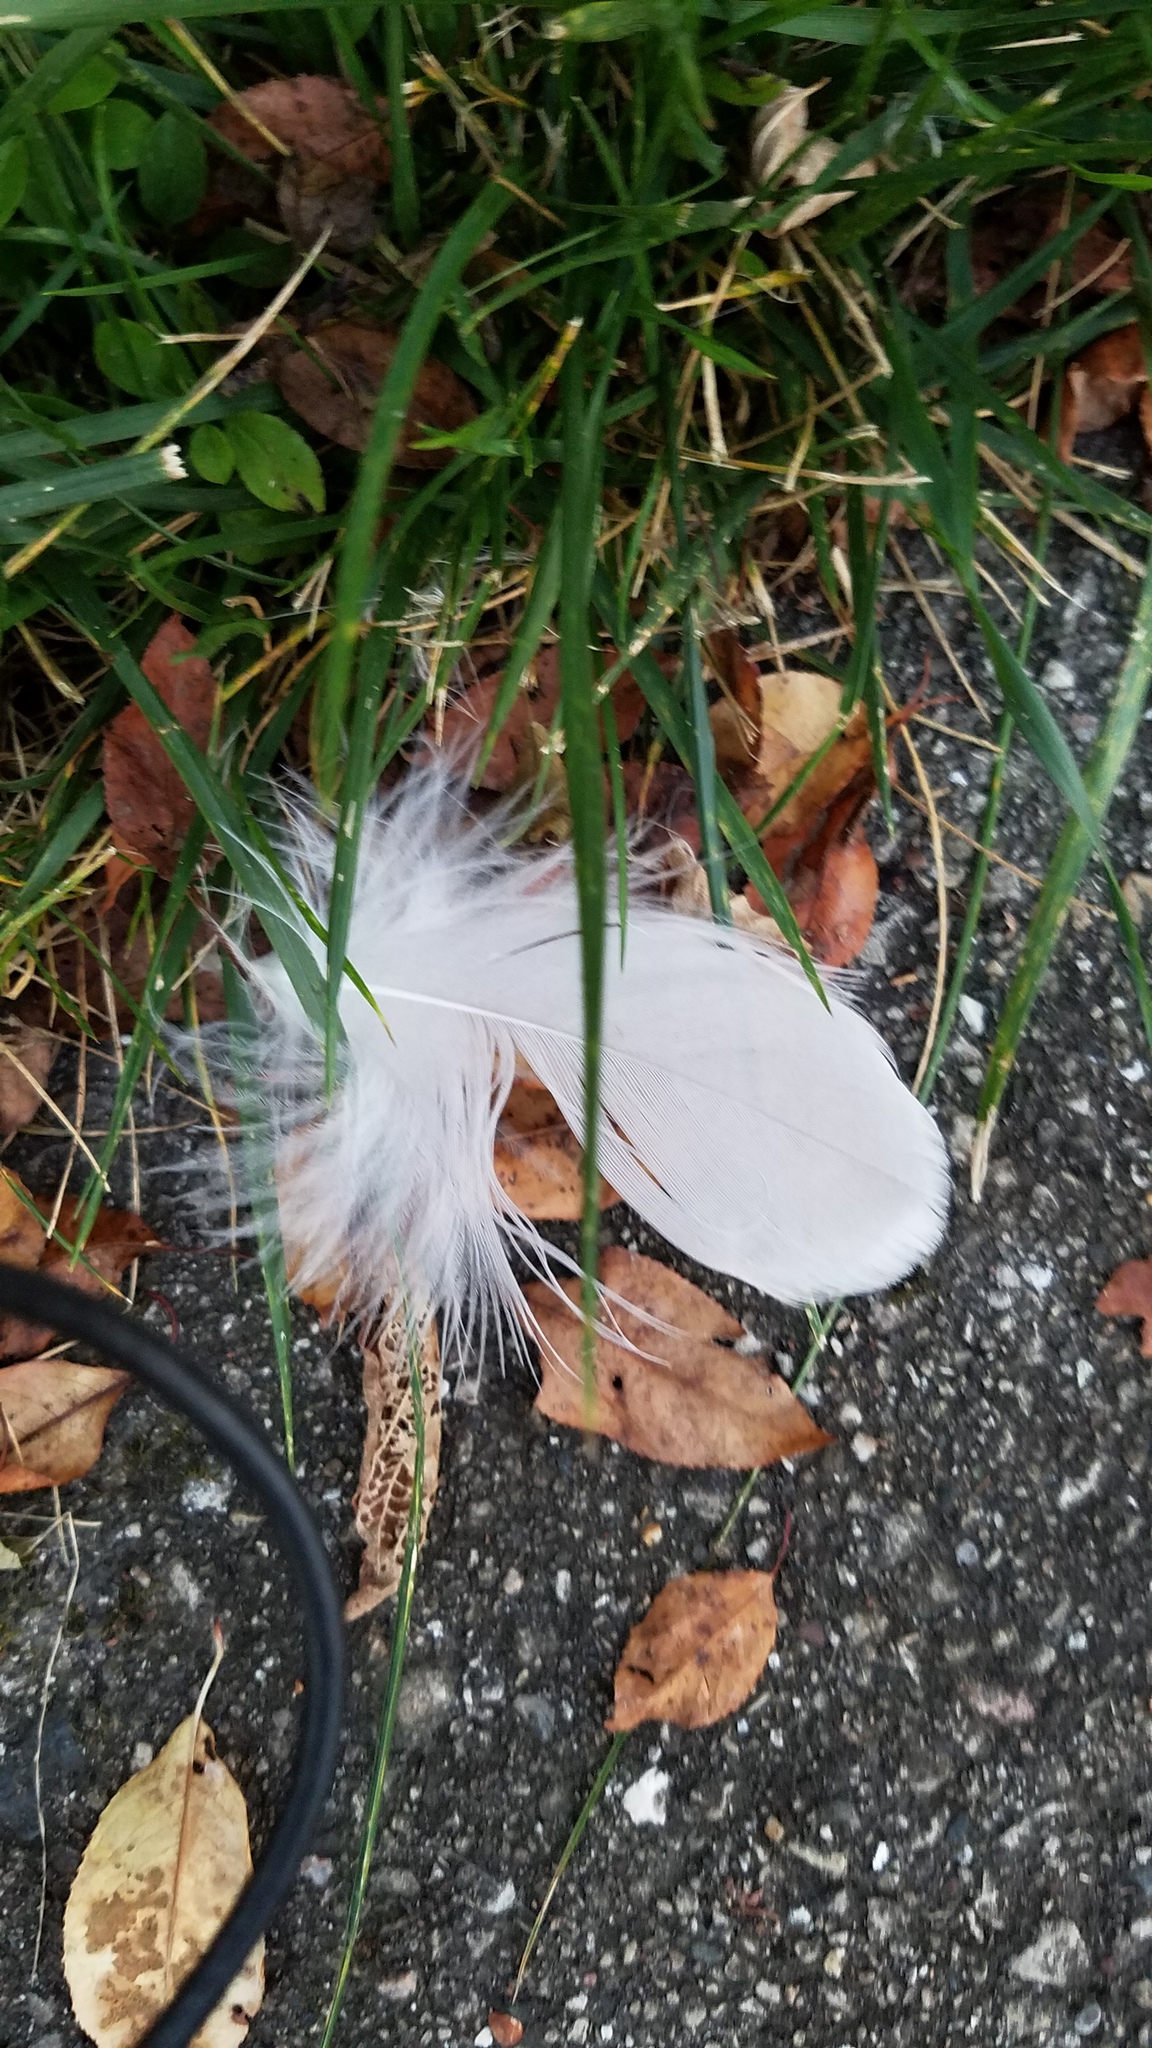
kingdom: Animalia
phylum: Chordata
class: Aves
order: Charadriiformes
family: Laridae
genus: Larus
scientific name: Larus
